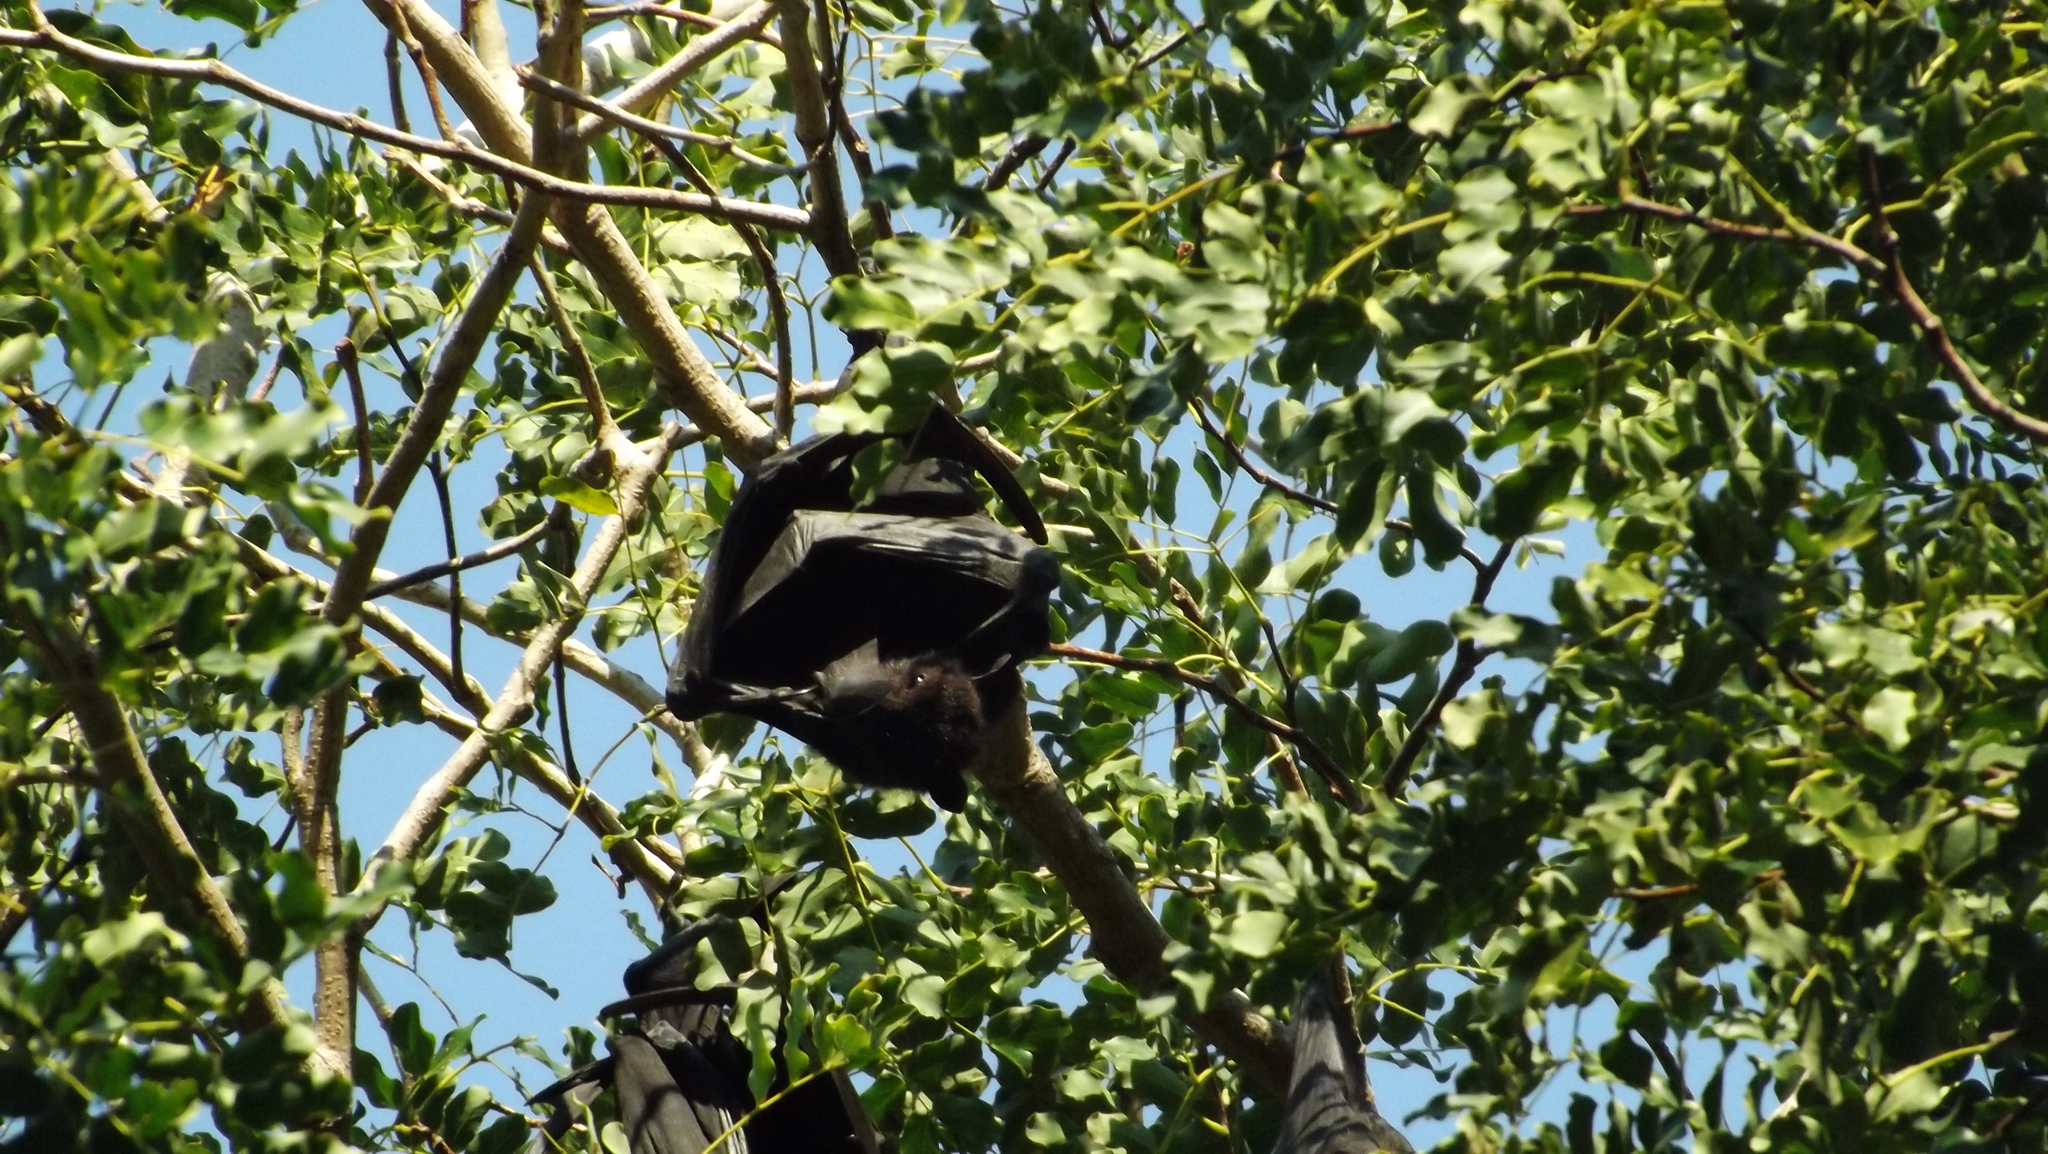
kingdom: Animalia
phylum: Chordata
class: Mammalia
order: Chiroptera
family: Pteropodidae
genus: Pteropus
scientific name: Pteropus alecto
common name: Black flying fox
